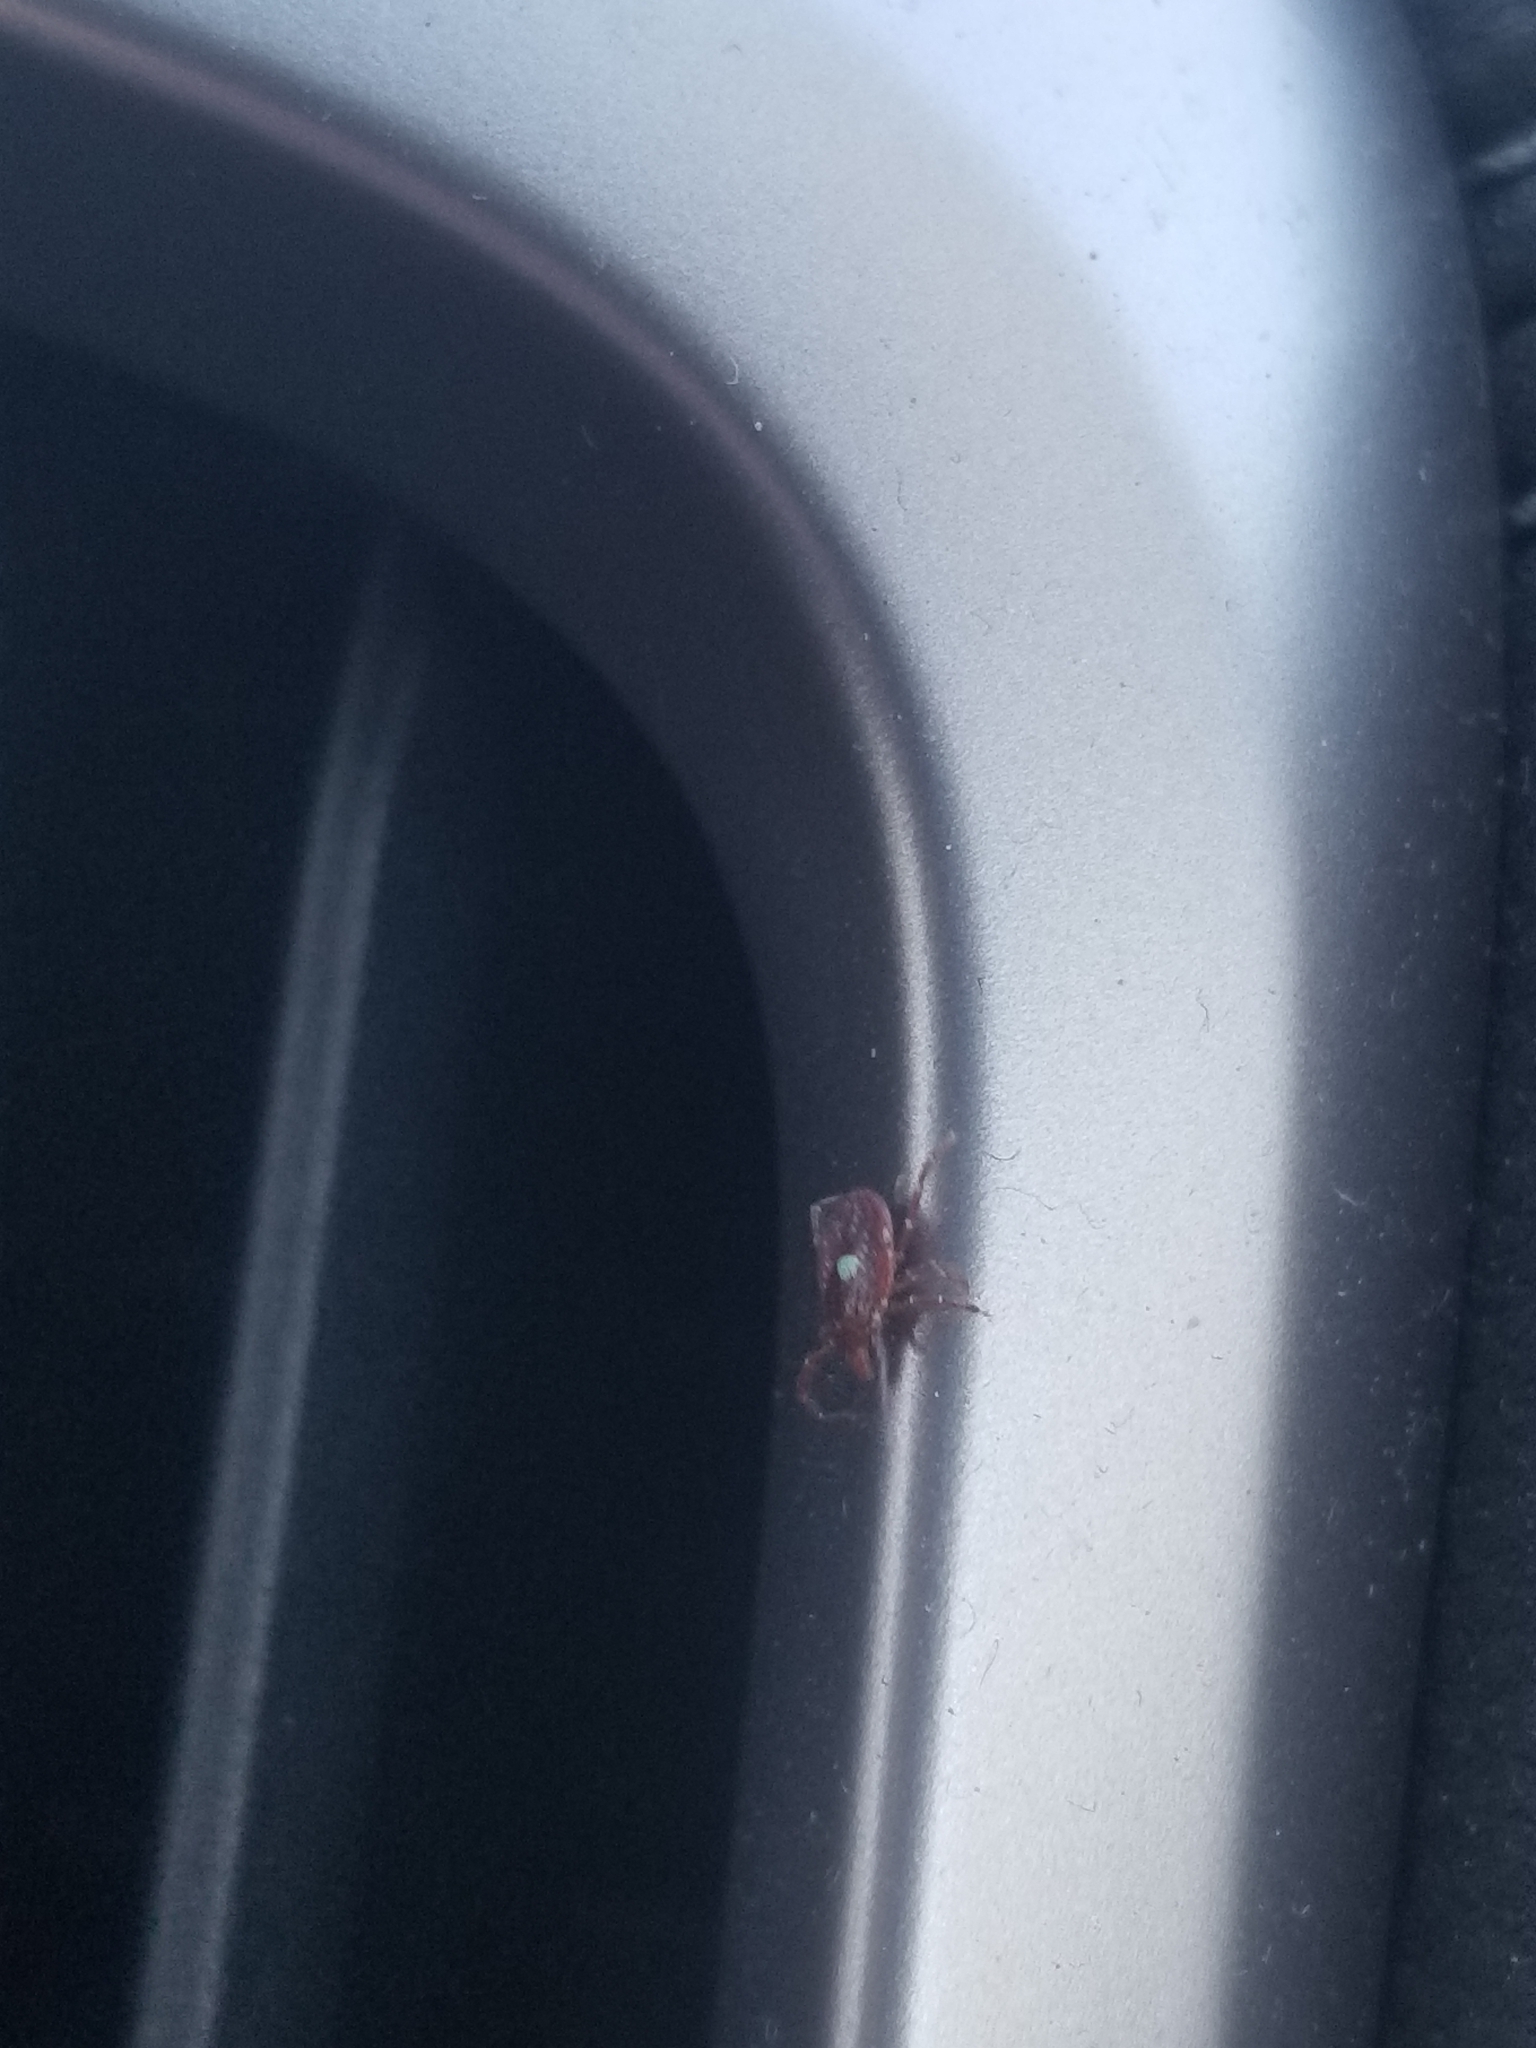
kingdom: Animalia
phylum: Arthropoda
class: Arachnida
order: Ixodida
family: Ixodidae
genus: Amblyomma
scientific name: Amblyomma americanum
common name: Lone star tick
